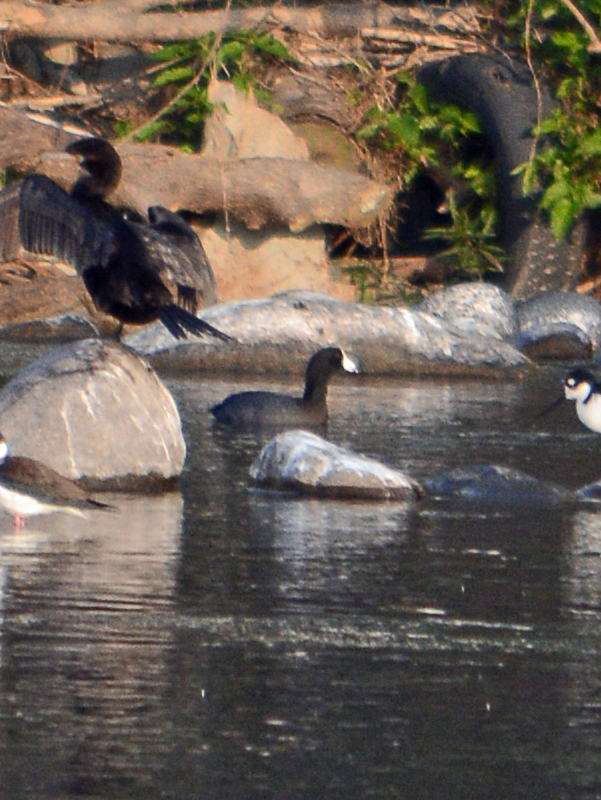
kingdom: Animalia
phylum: Chordata
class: Aves
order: Gruiformes
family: Rallidae
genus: Fulica
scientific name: Fulica americana
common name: American coot
